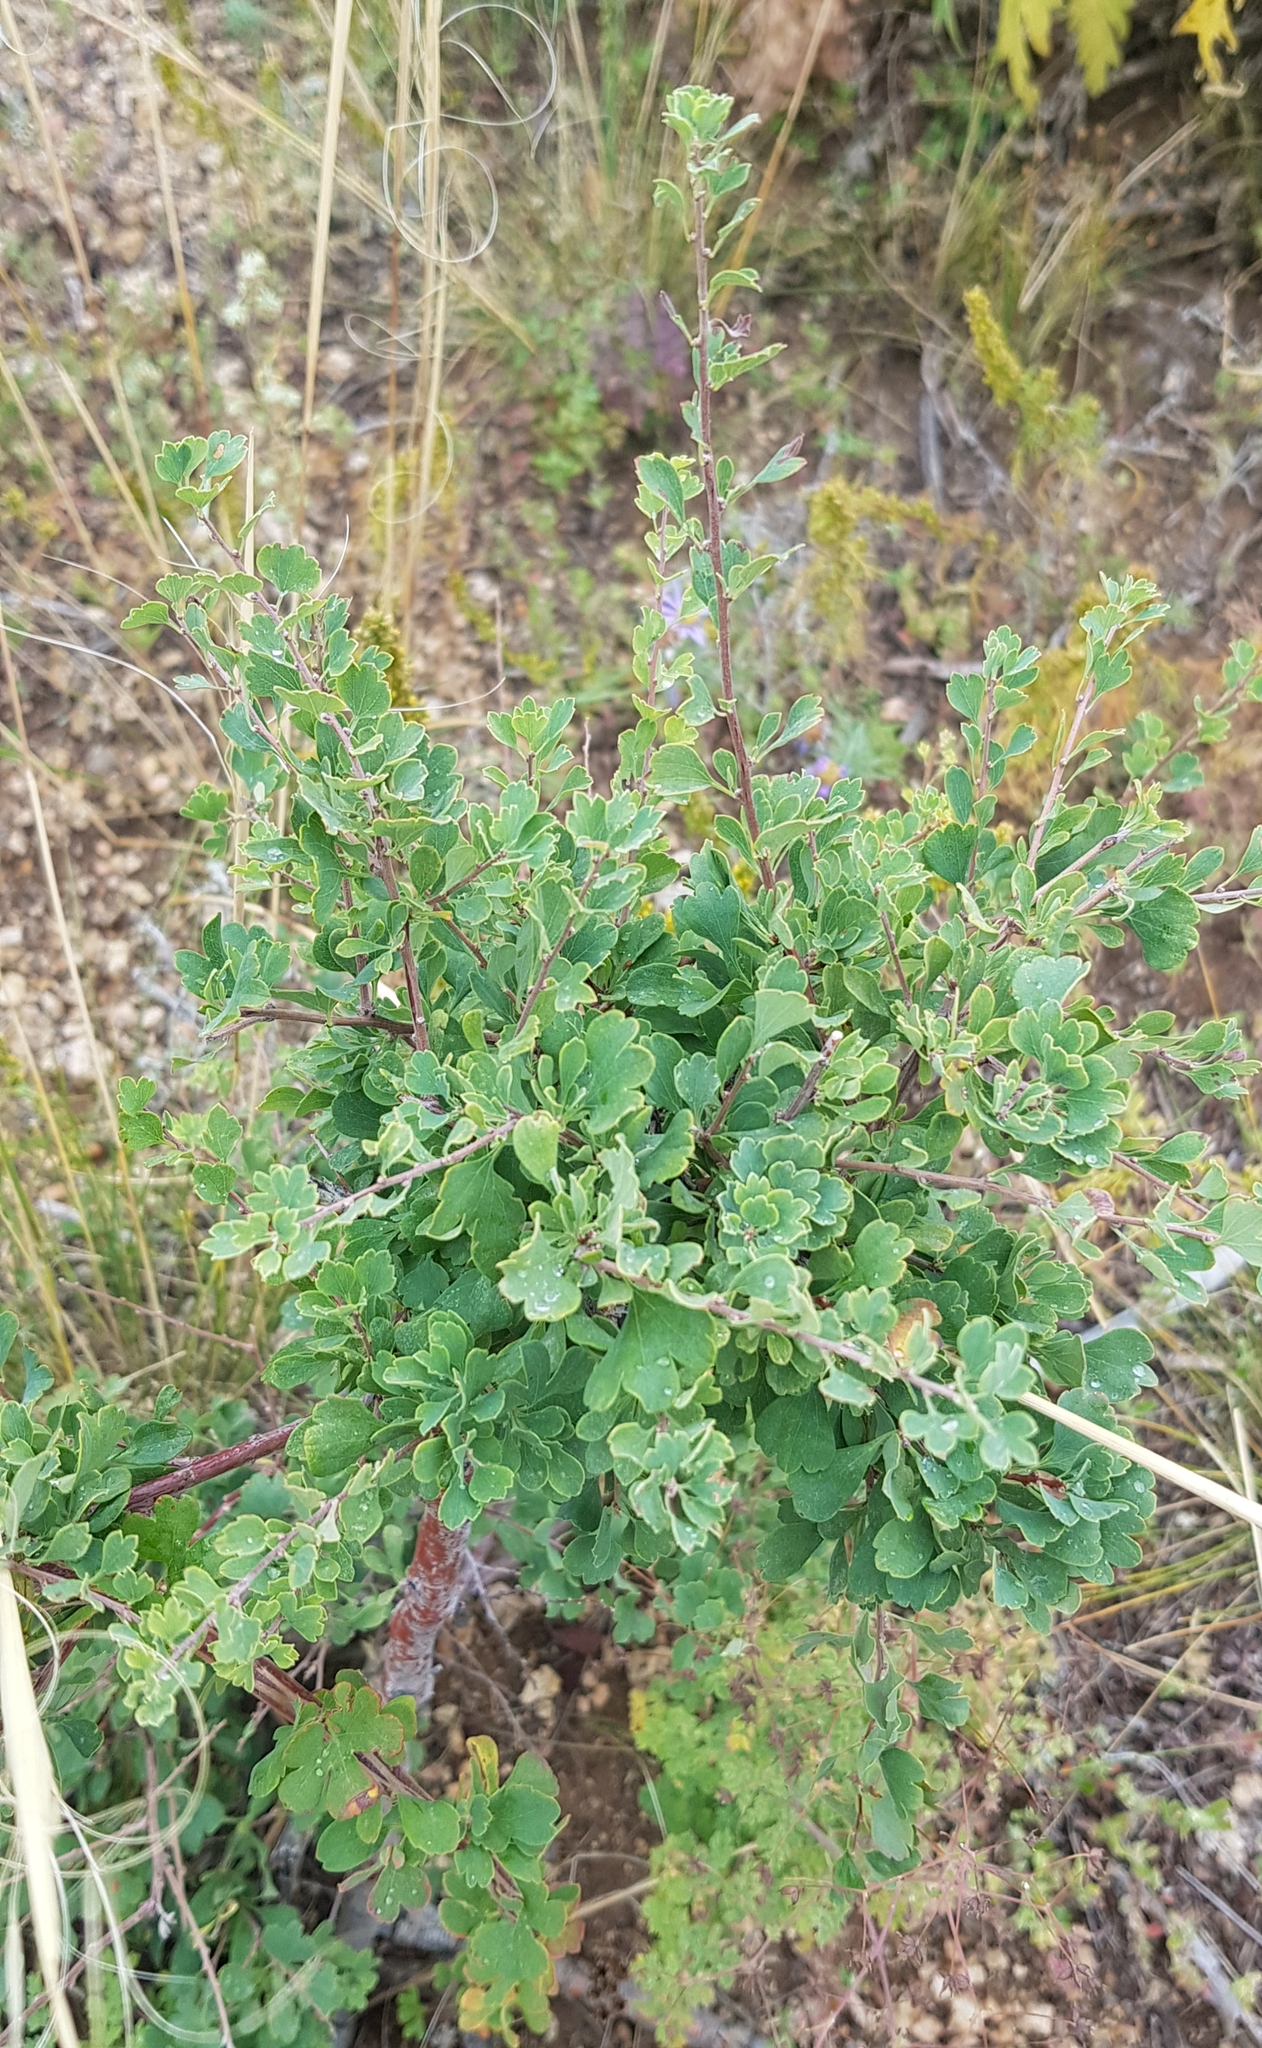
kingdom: Plantae
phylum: Tracheophyta
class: Magnoliopsida
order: Rosales
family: Rosaceae
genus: Spiraea
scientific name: Spiraea aquilegifolia
